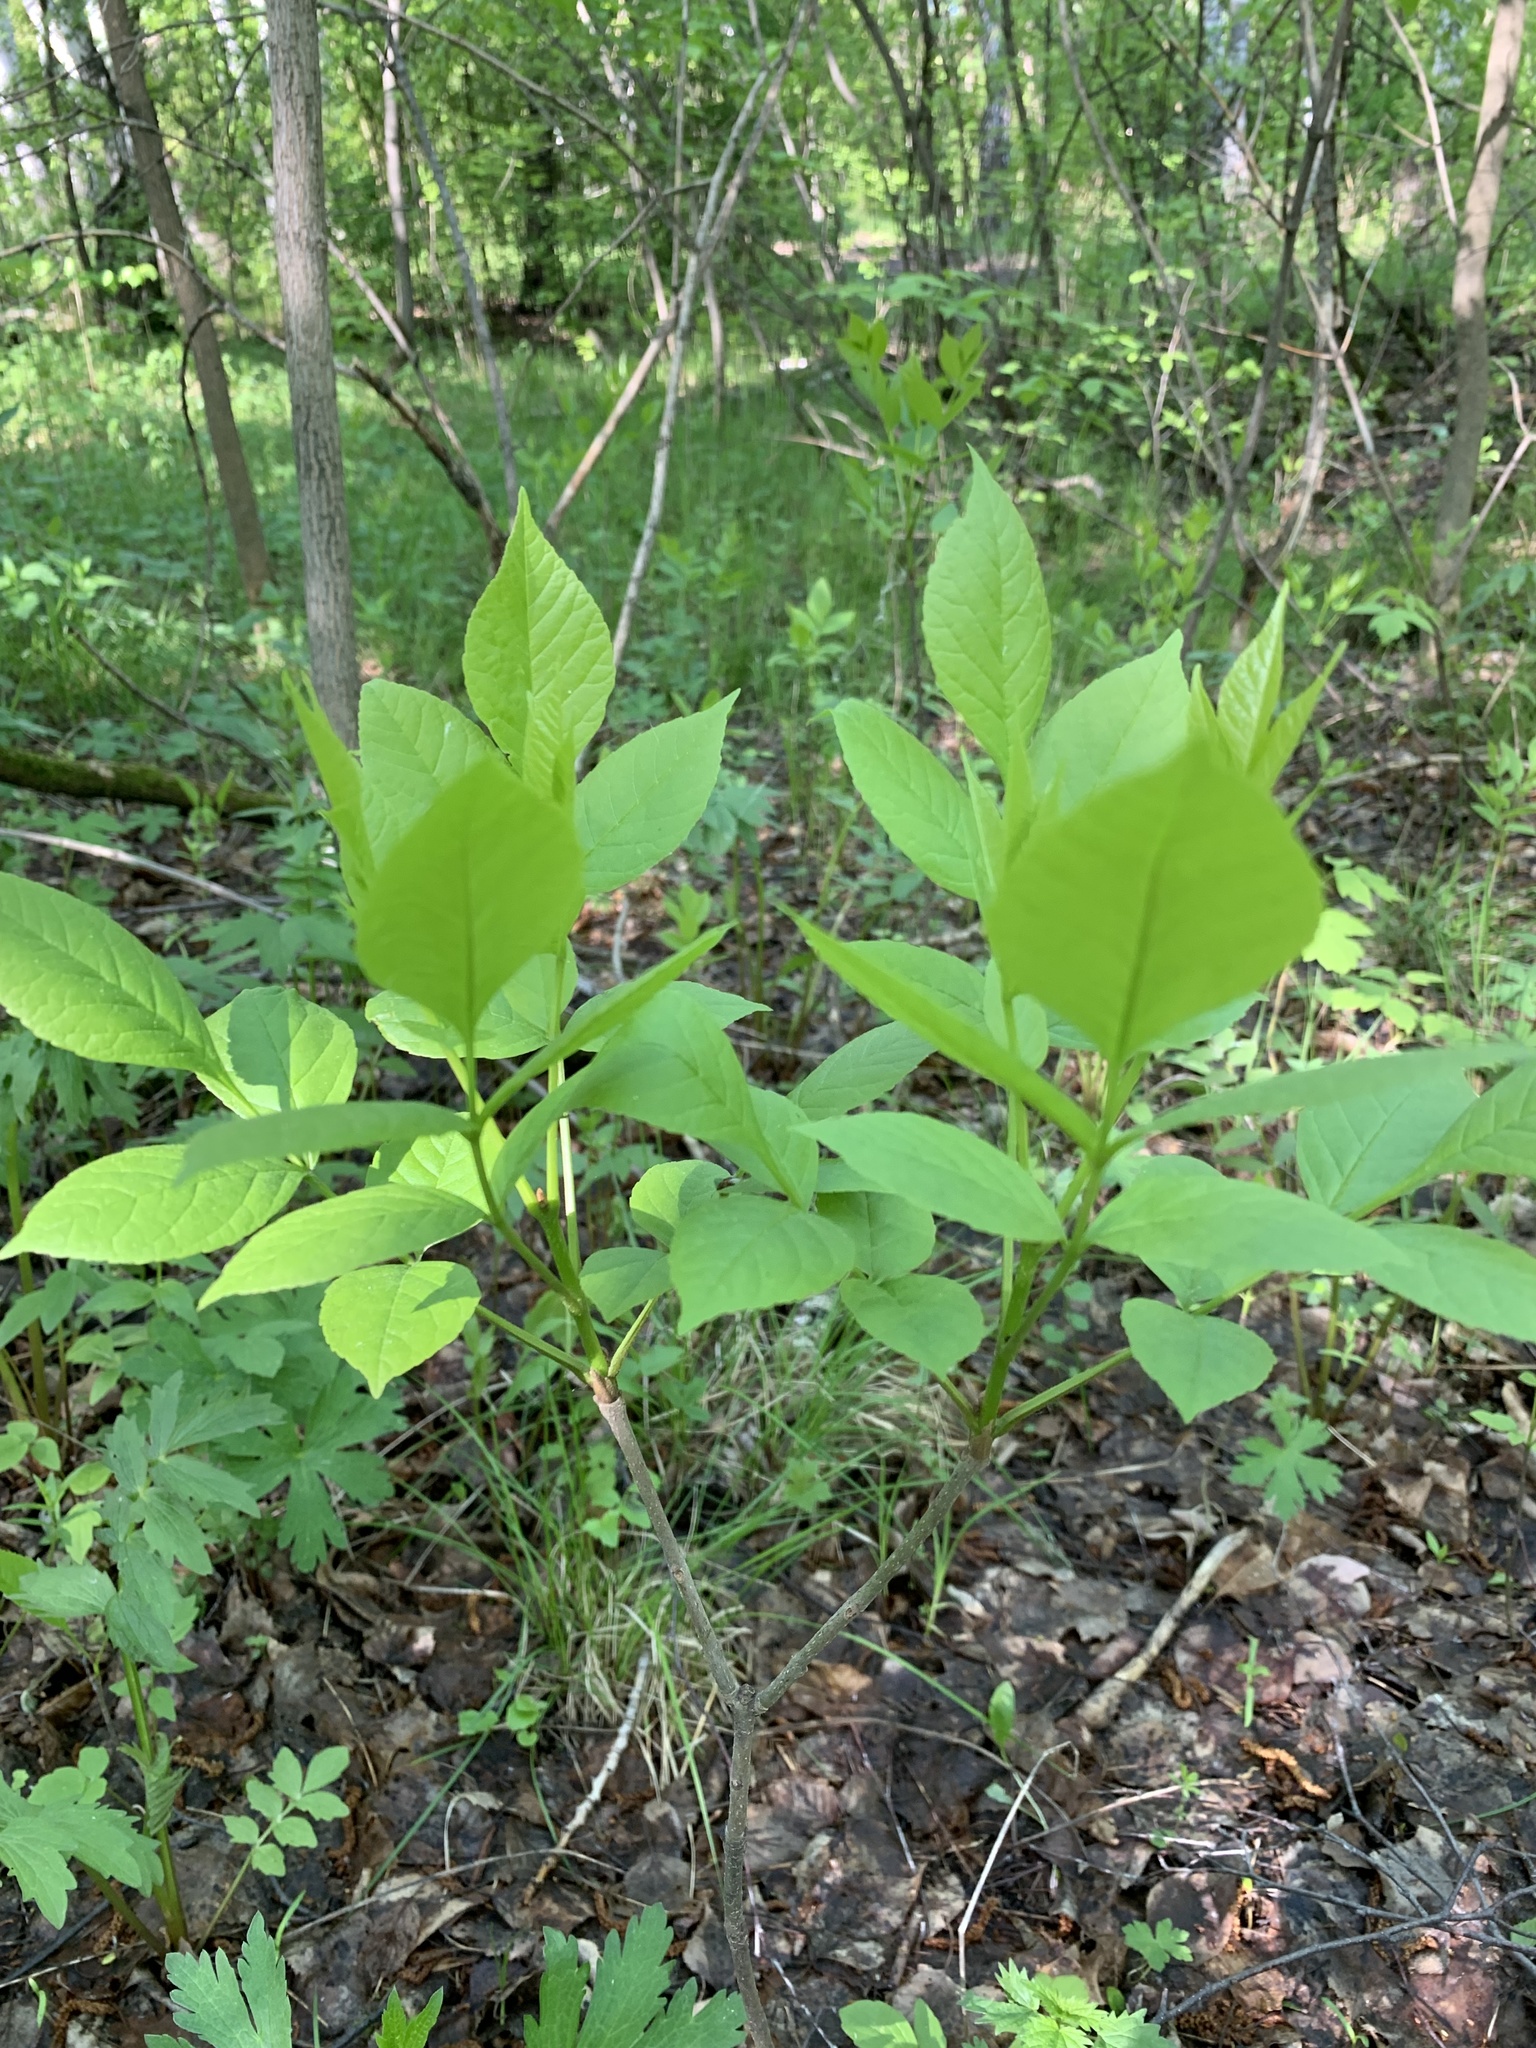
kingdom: Plantae
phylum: Tracheophyta
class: Magnoliopsida
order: Lamiales
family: Oleaceae
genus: Fraxinus
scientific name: Fraxinus pennsylvanica
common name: Green ash
